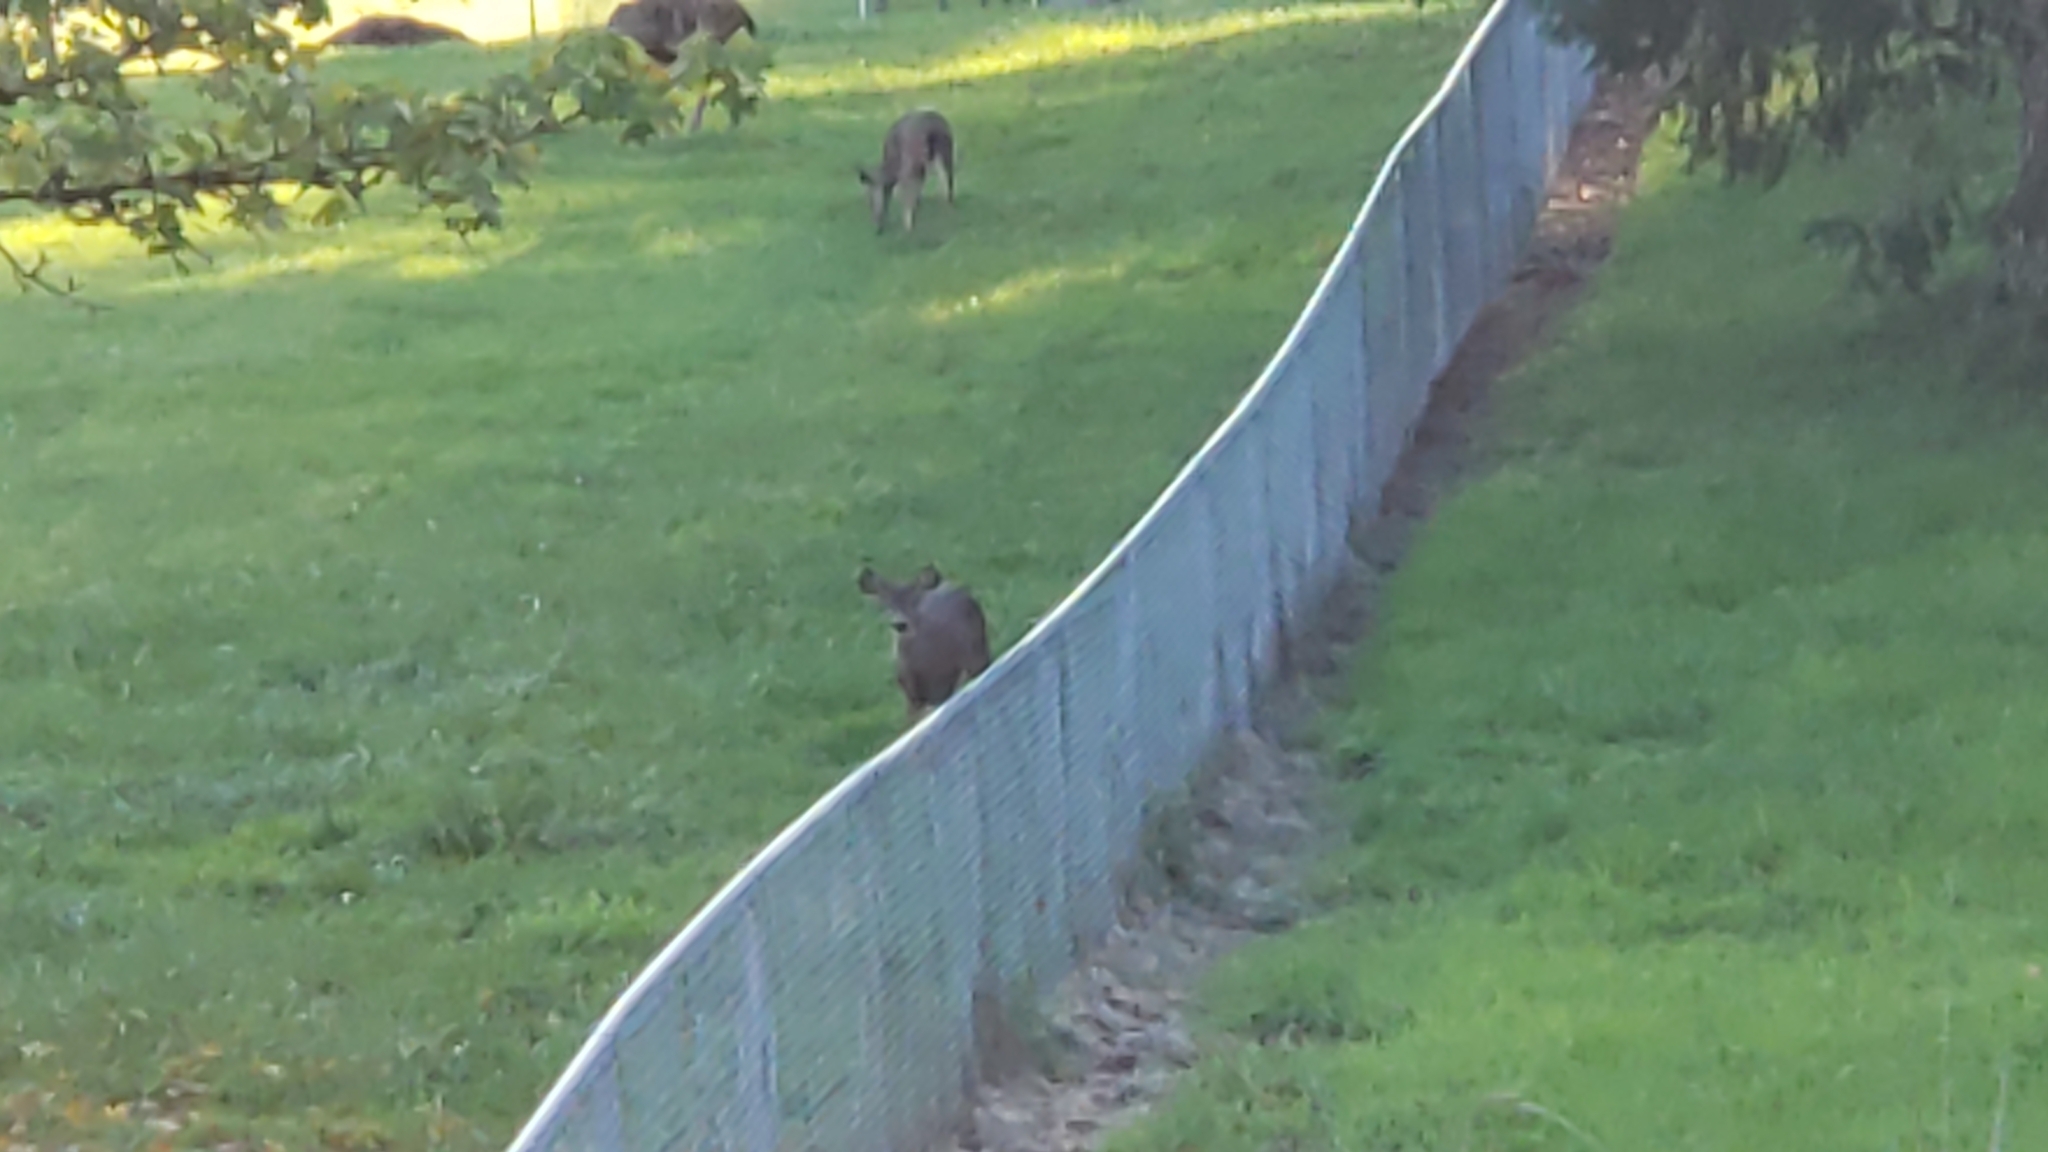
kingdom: Animalia
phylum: Chordata
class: Mammalia
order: Artiodactyla
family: Cervidae
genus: Odocoileus
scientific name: Odocoileus hemionus
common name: Mule deer
